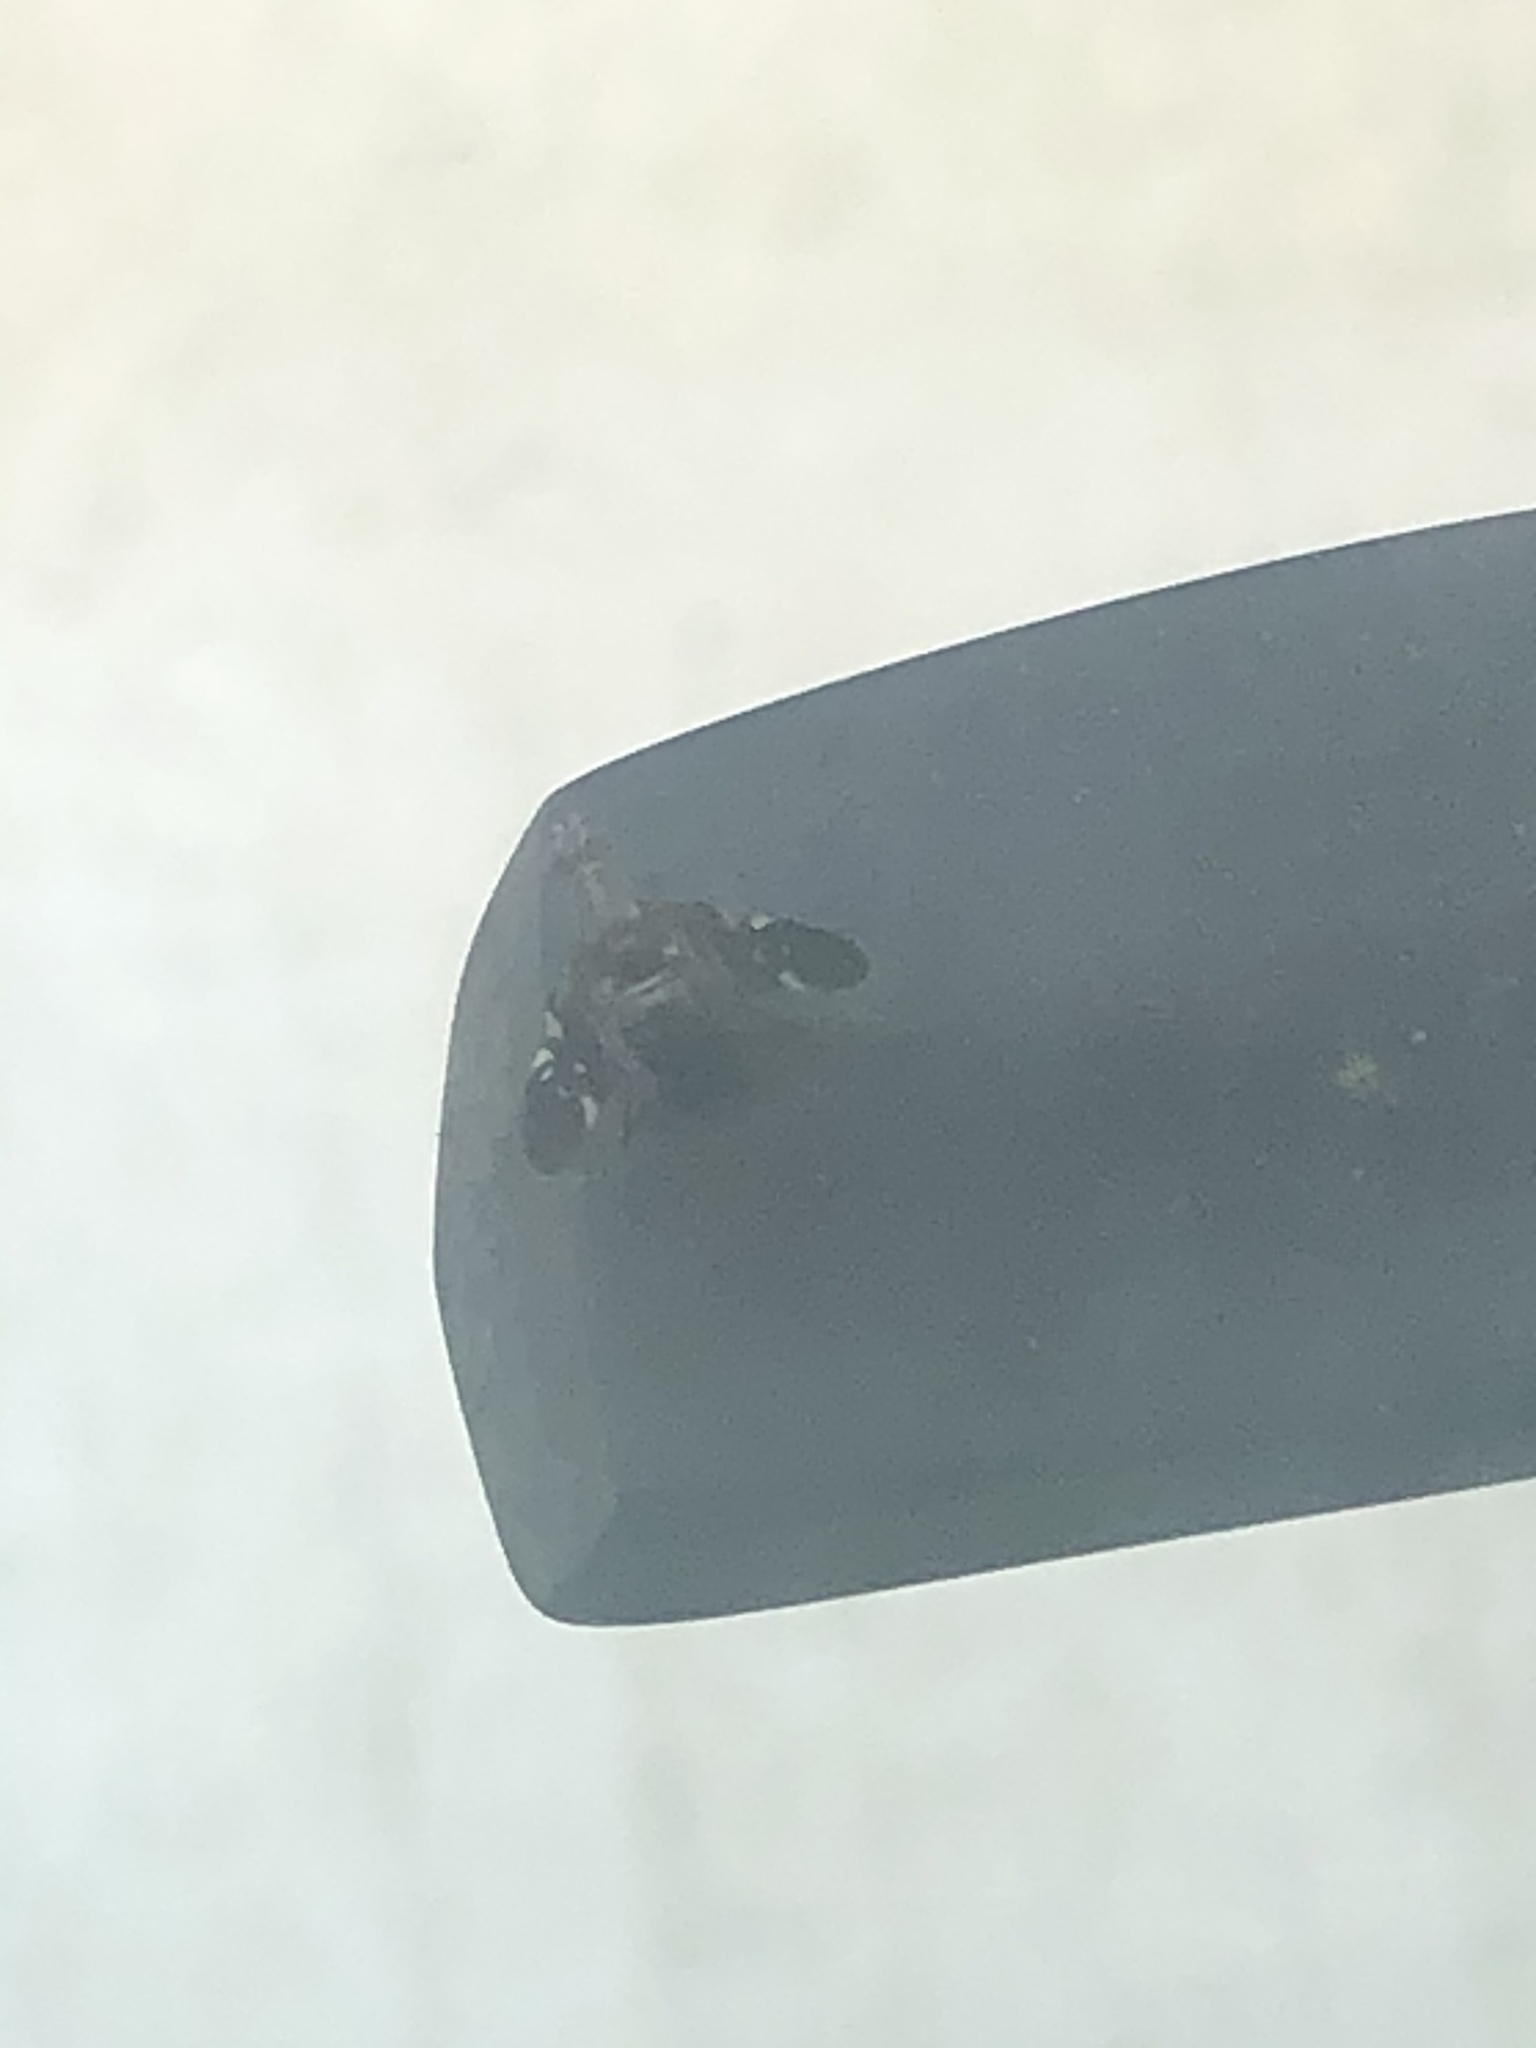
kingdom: Animalia
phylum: Arthropoda
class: Insecta
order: Diptera
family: Ulidiidae
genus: Delphinia
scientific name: Delphinia picta
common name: Common picture-winged fly
